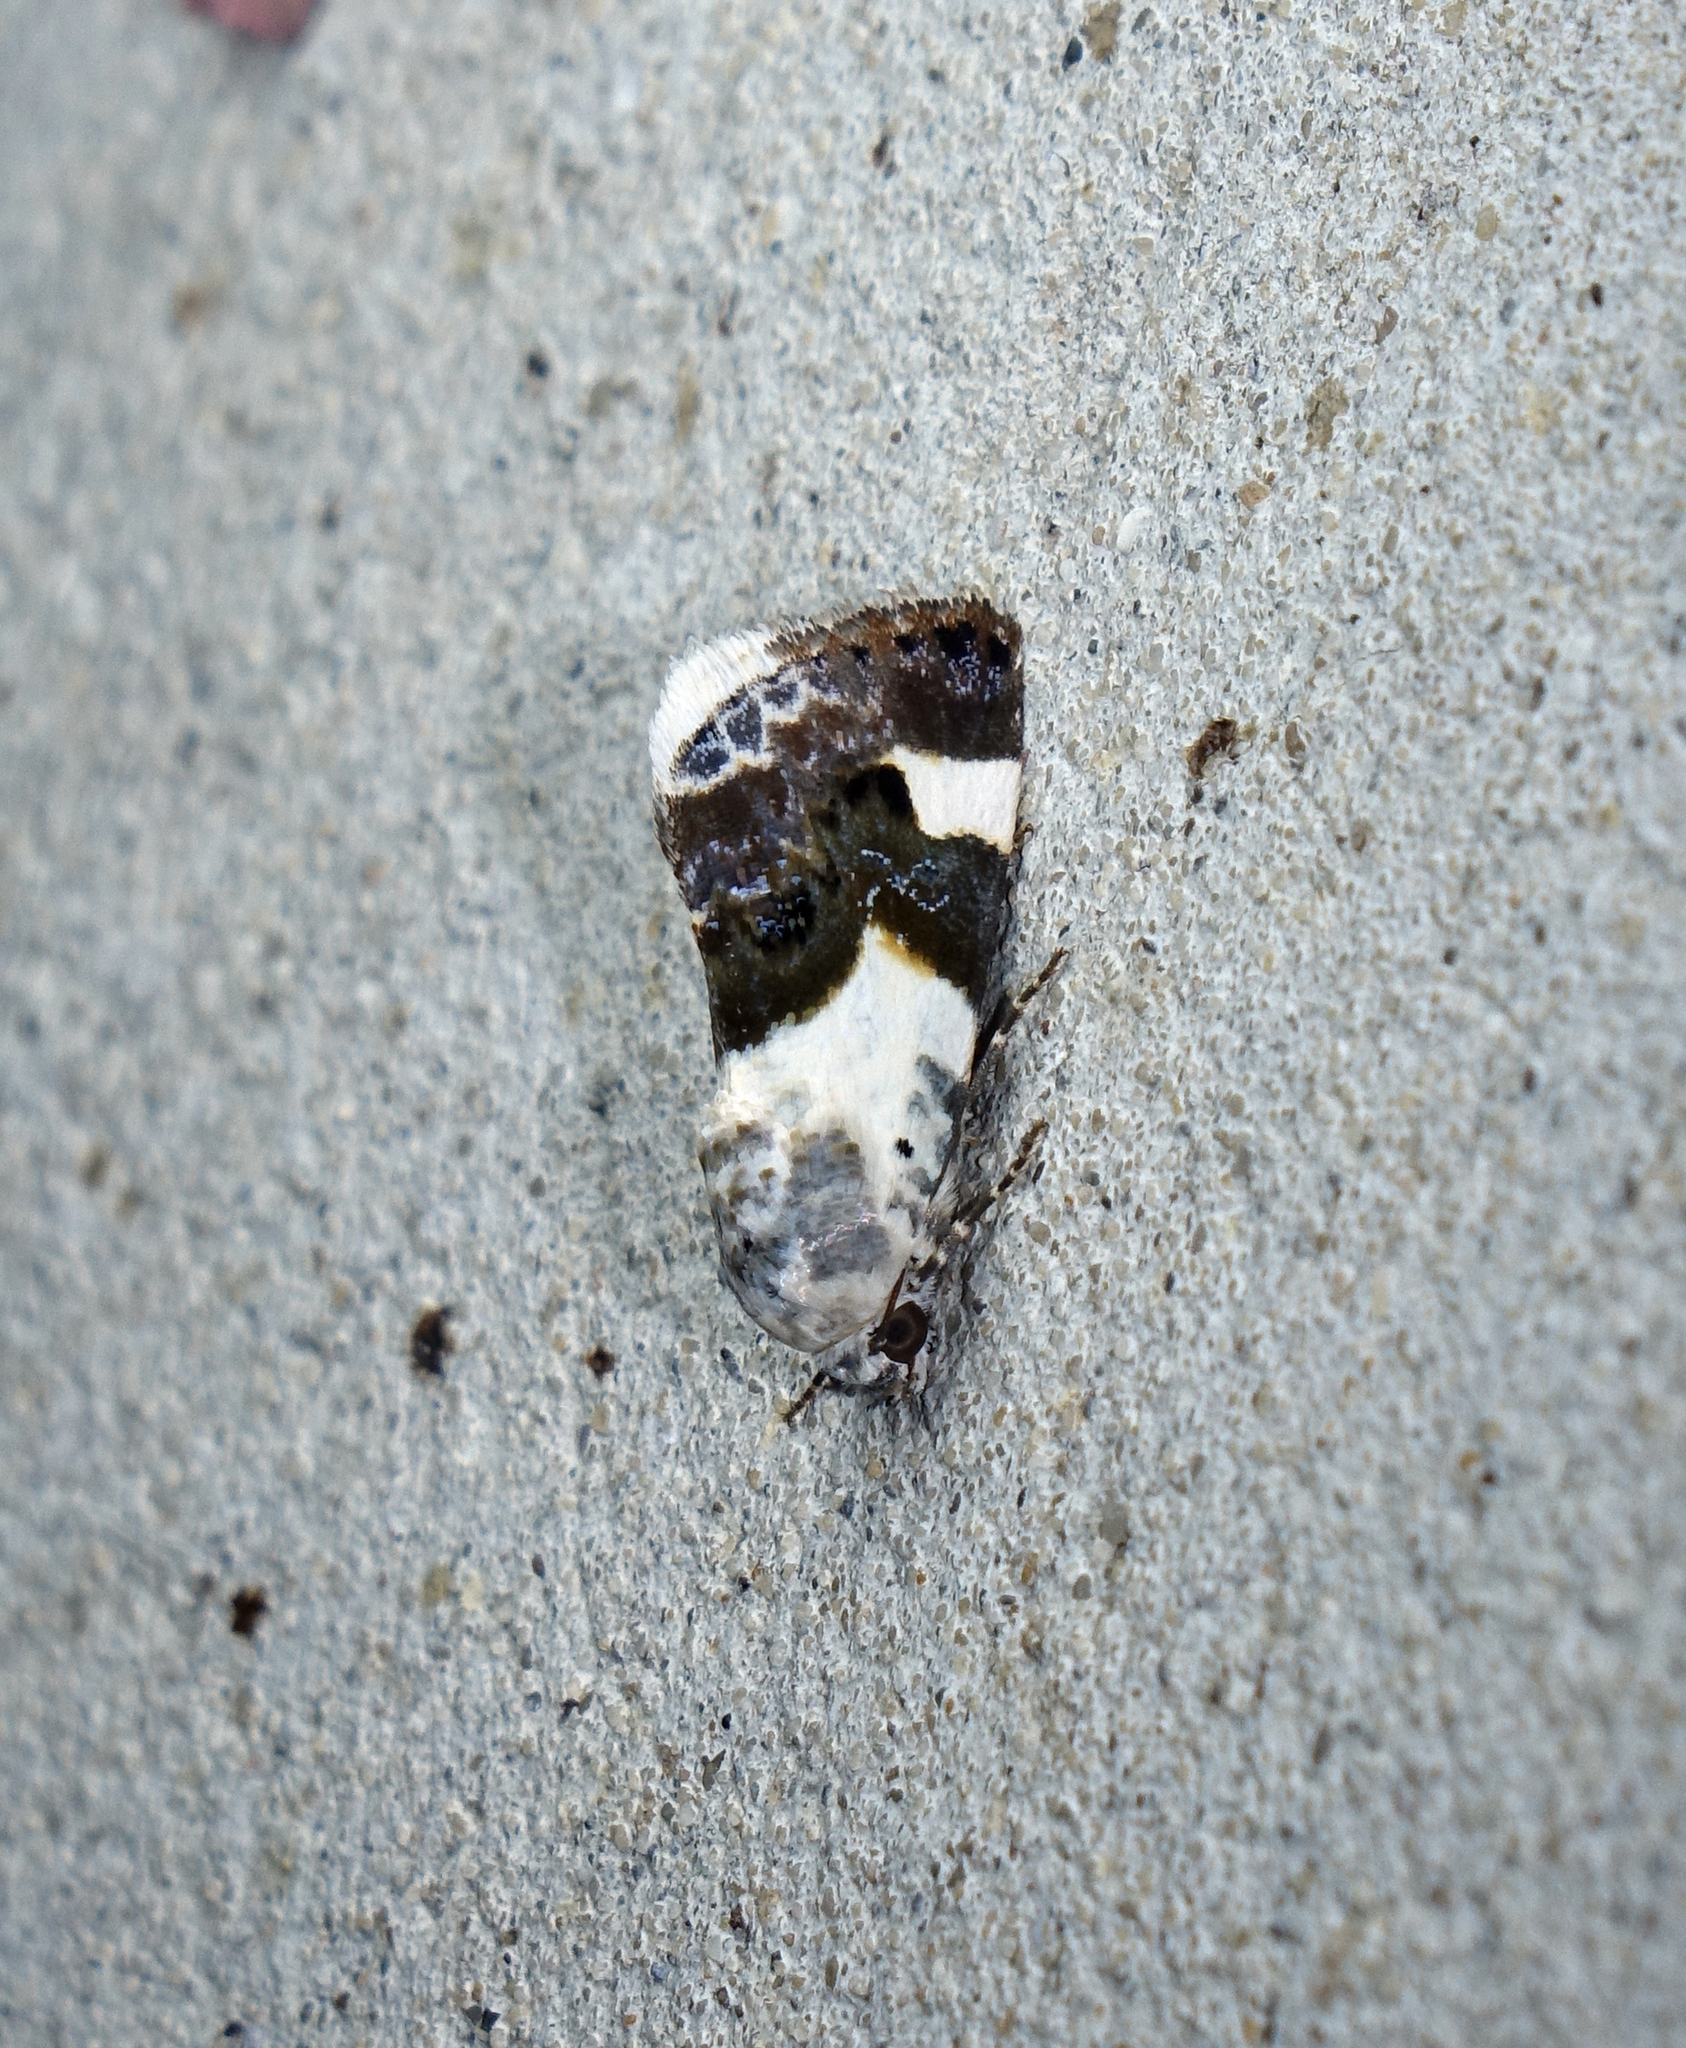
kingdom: Animalia
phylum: Arthropoda
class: Insecta
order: Lepidoptera
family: Noctuidae
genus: Acontia
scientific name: Acontia lucida
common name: Pale shoulder
